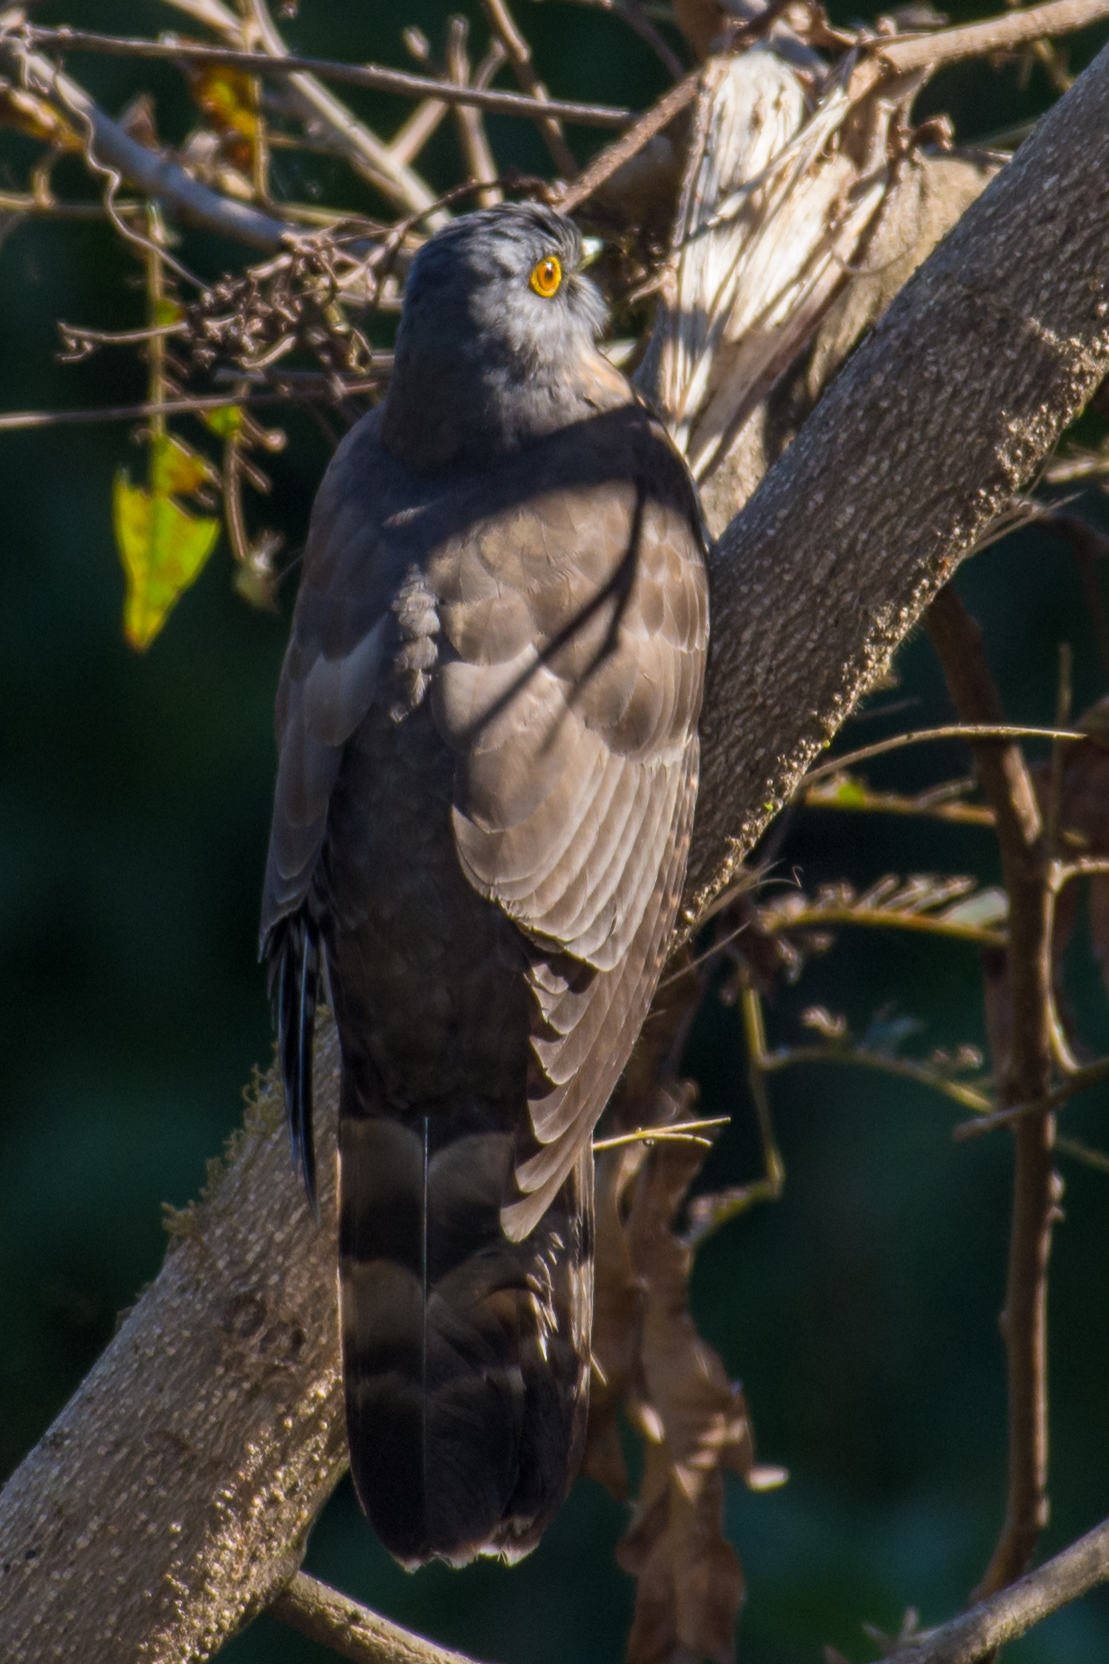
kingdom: Animalia
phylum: Chordata
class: Aves
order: Cuculiformes
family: Cuculidae
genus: Cuculus
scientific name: Cuculus sparverioides
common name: Large hawk cuckoo
